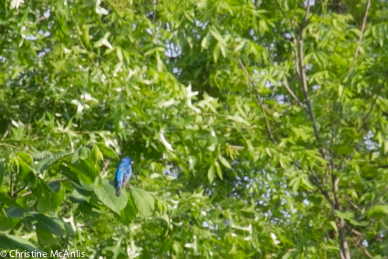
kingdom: Animalia
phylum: Chordata
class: Aves
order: Passeriformes
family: Cardinalidae
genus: Passerina
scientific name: Passerina cyanea
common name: Indigo bunting
